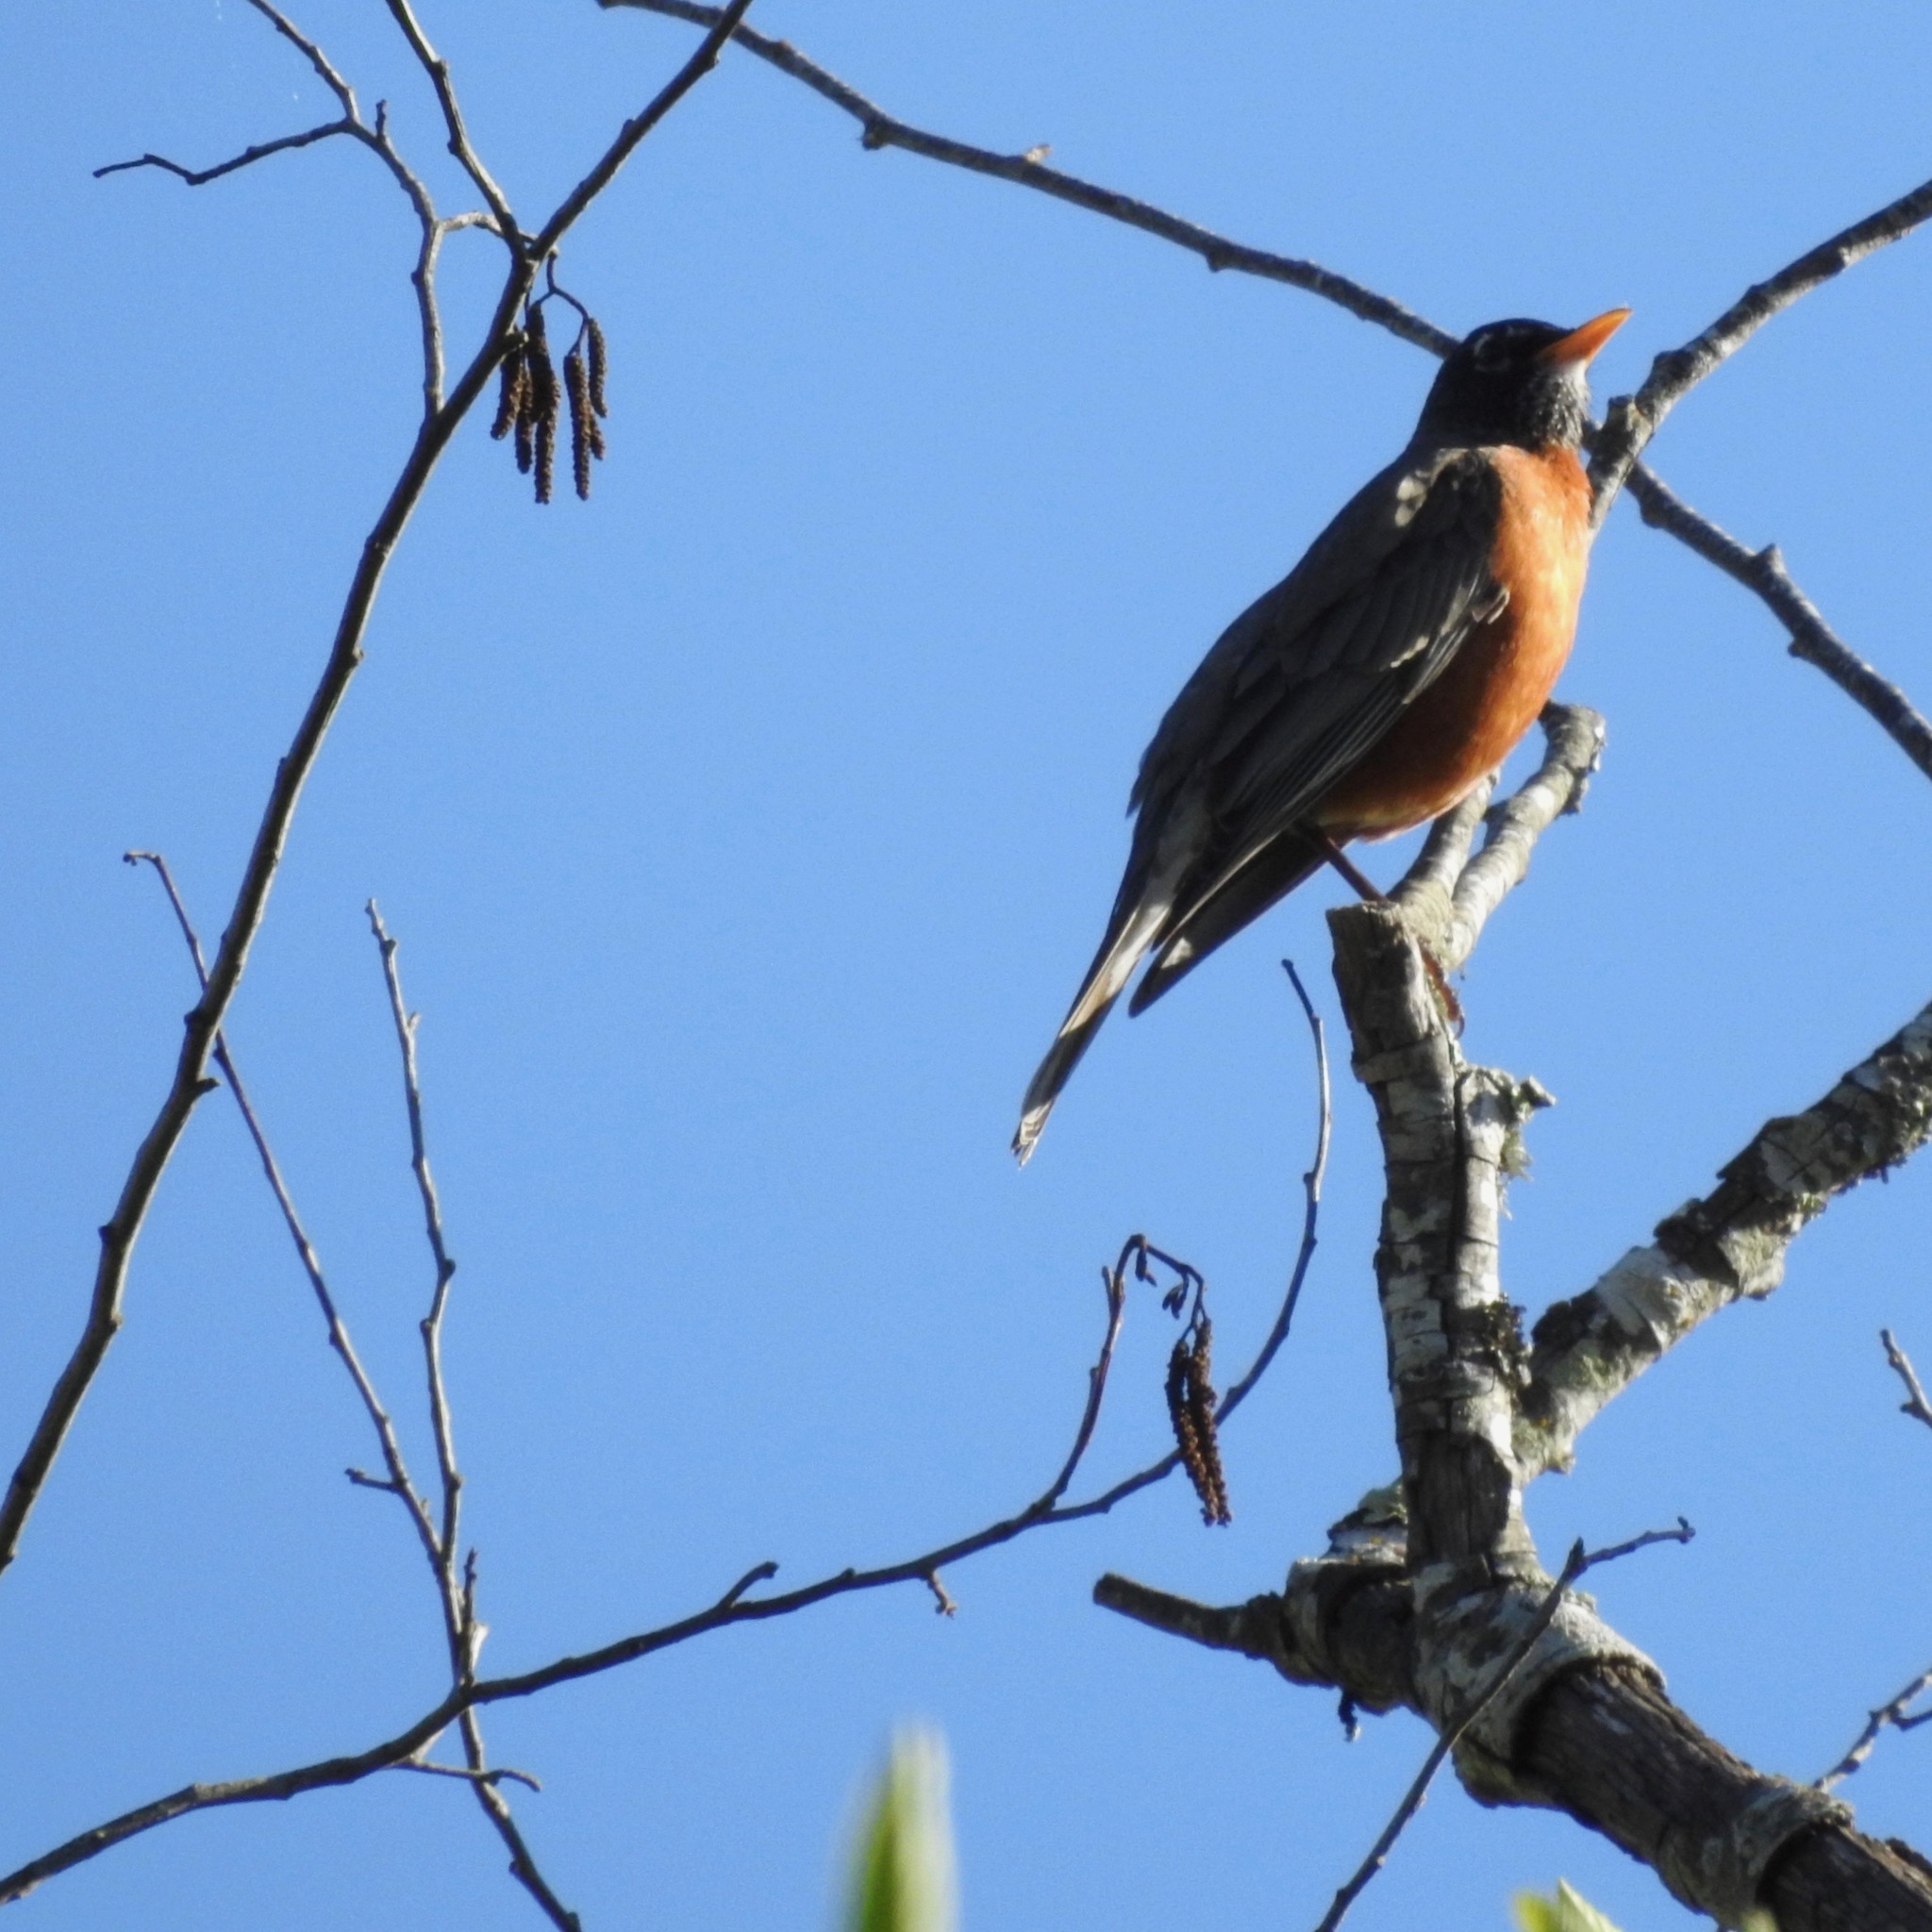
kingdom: Animalia
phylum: Chordata
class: Aves
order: Passeriformes
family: Turdidae
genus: Turdus
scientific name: Turdus migratorius
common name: American robin
